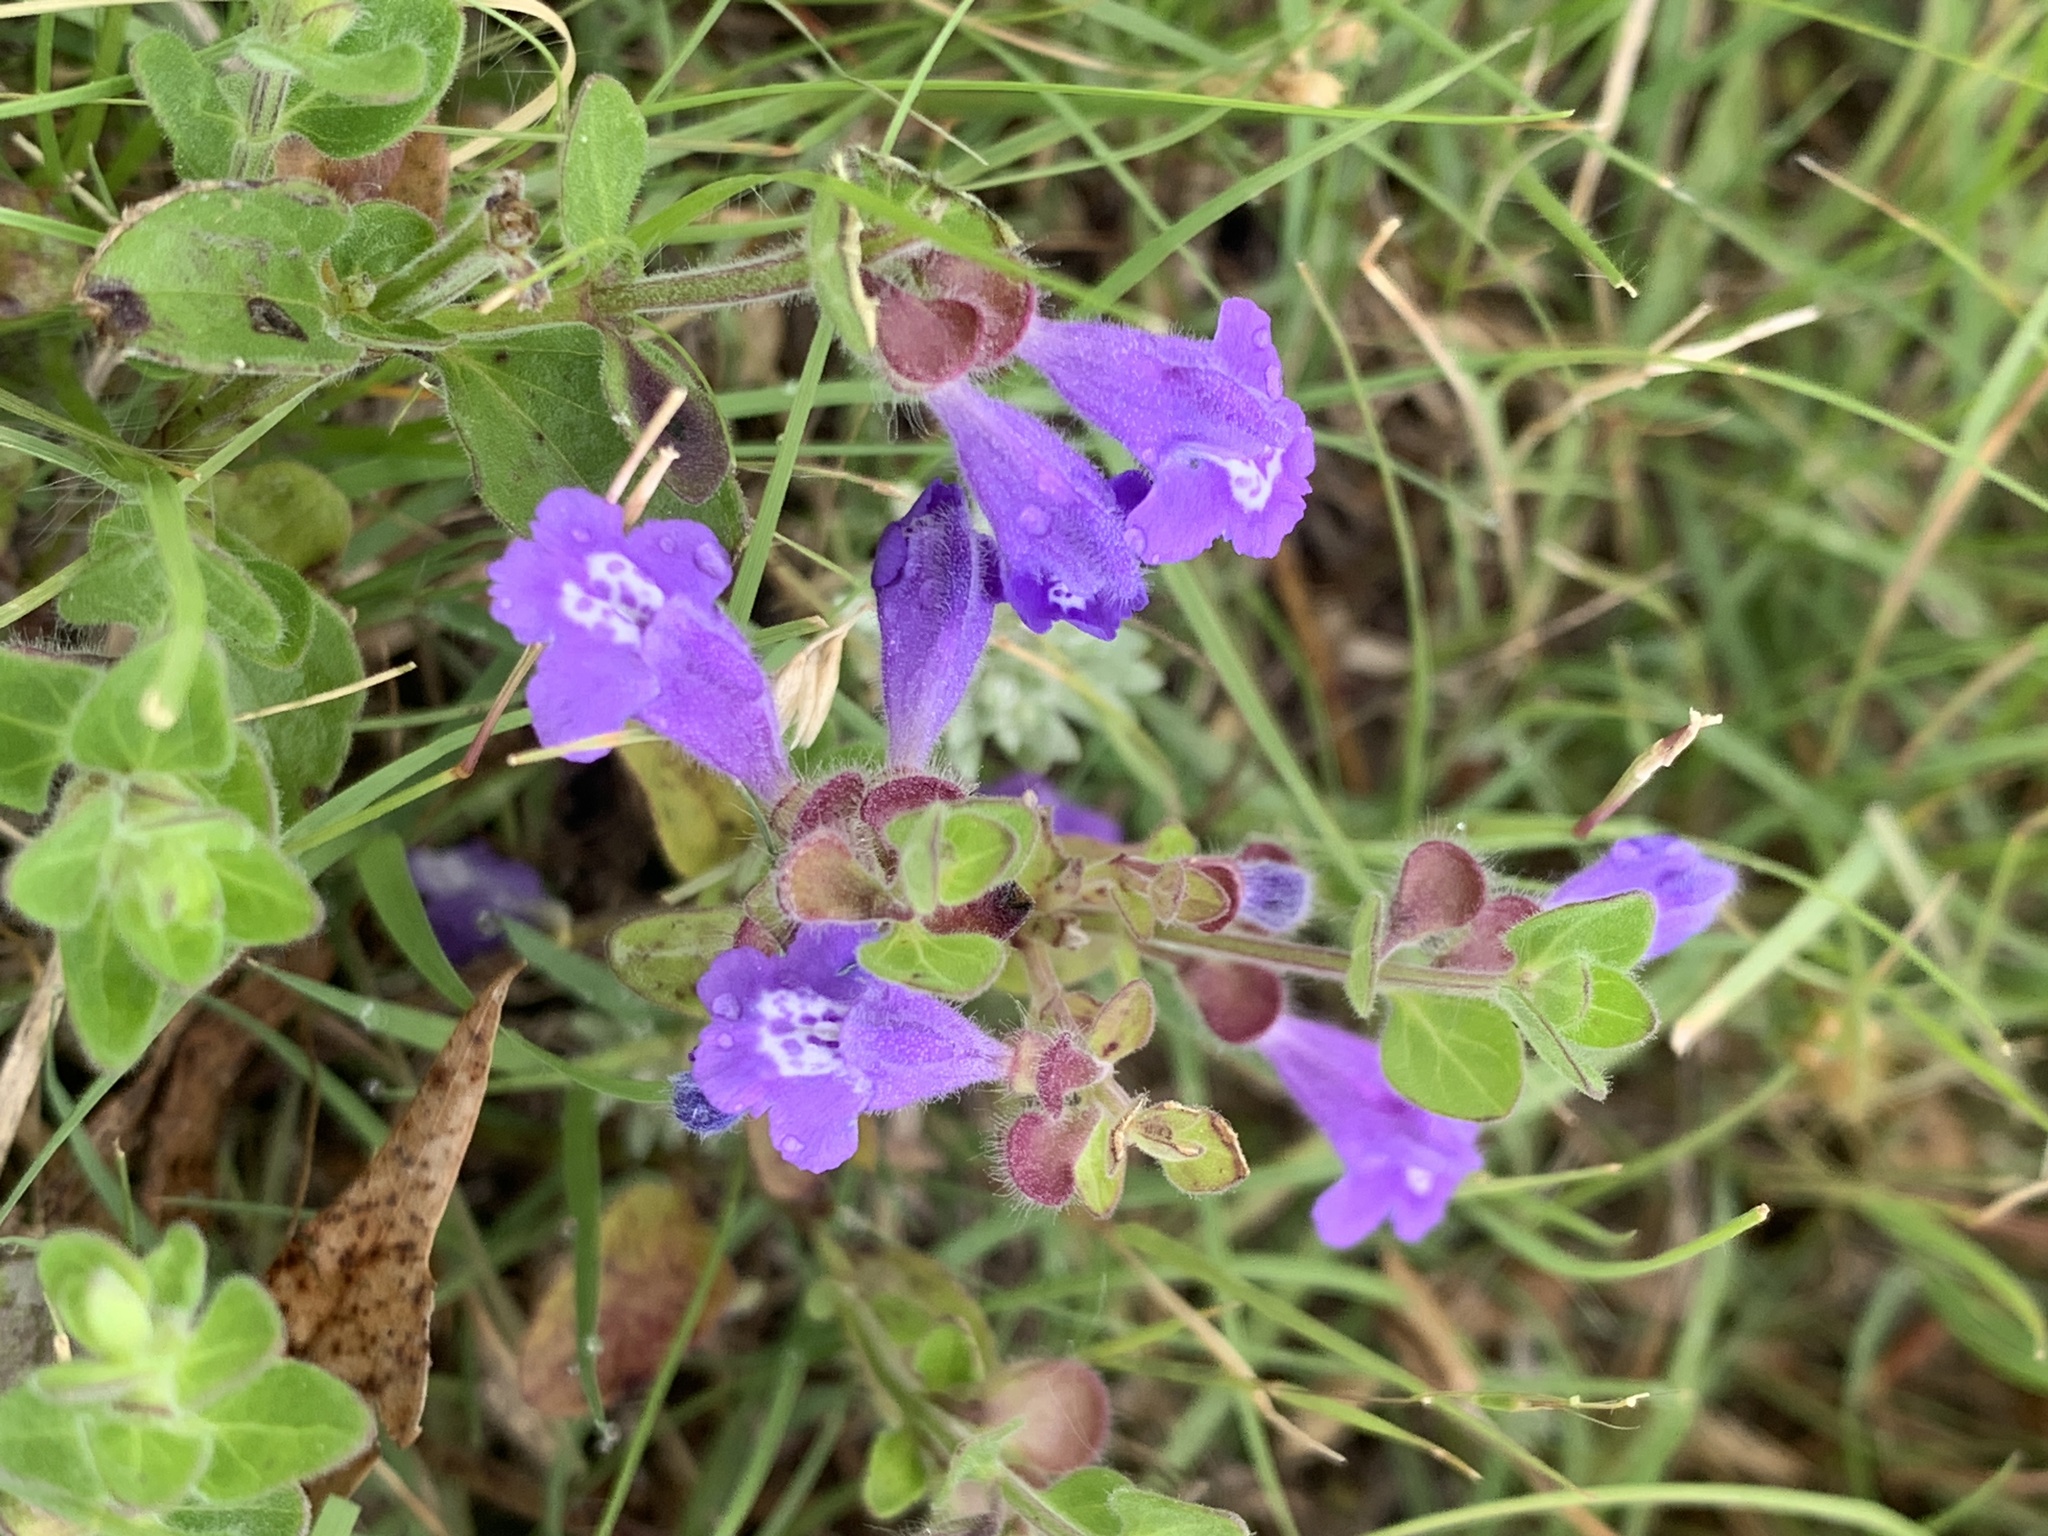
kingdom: Plantae
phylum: Tracheophyta
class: Magnoliopsida
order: Lamiales
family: Lamiaceae
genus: Scutellaria
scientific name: Scutellaria drummondii
